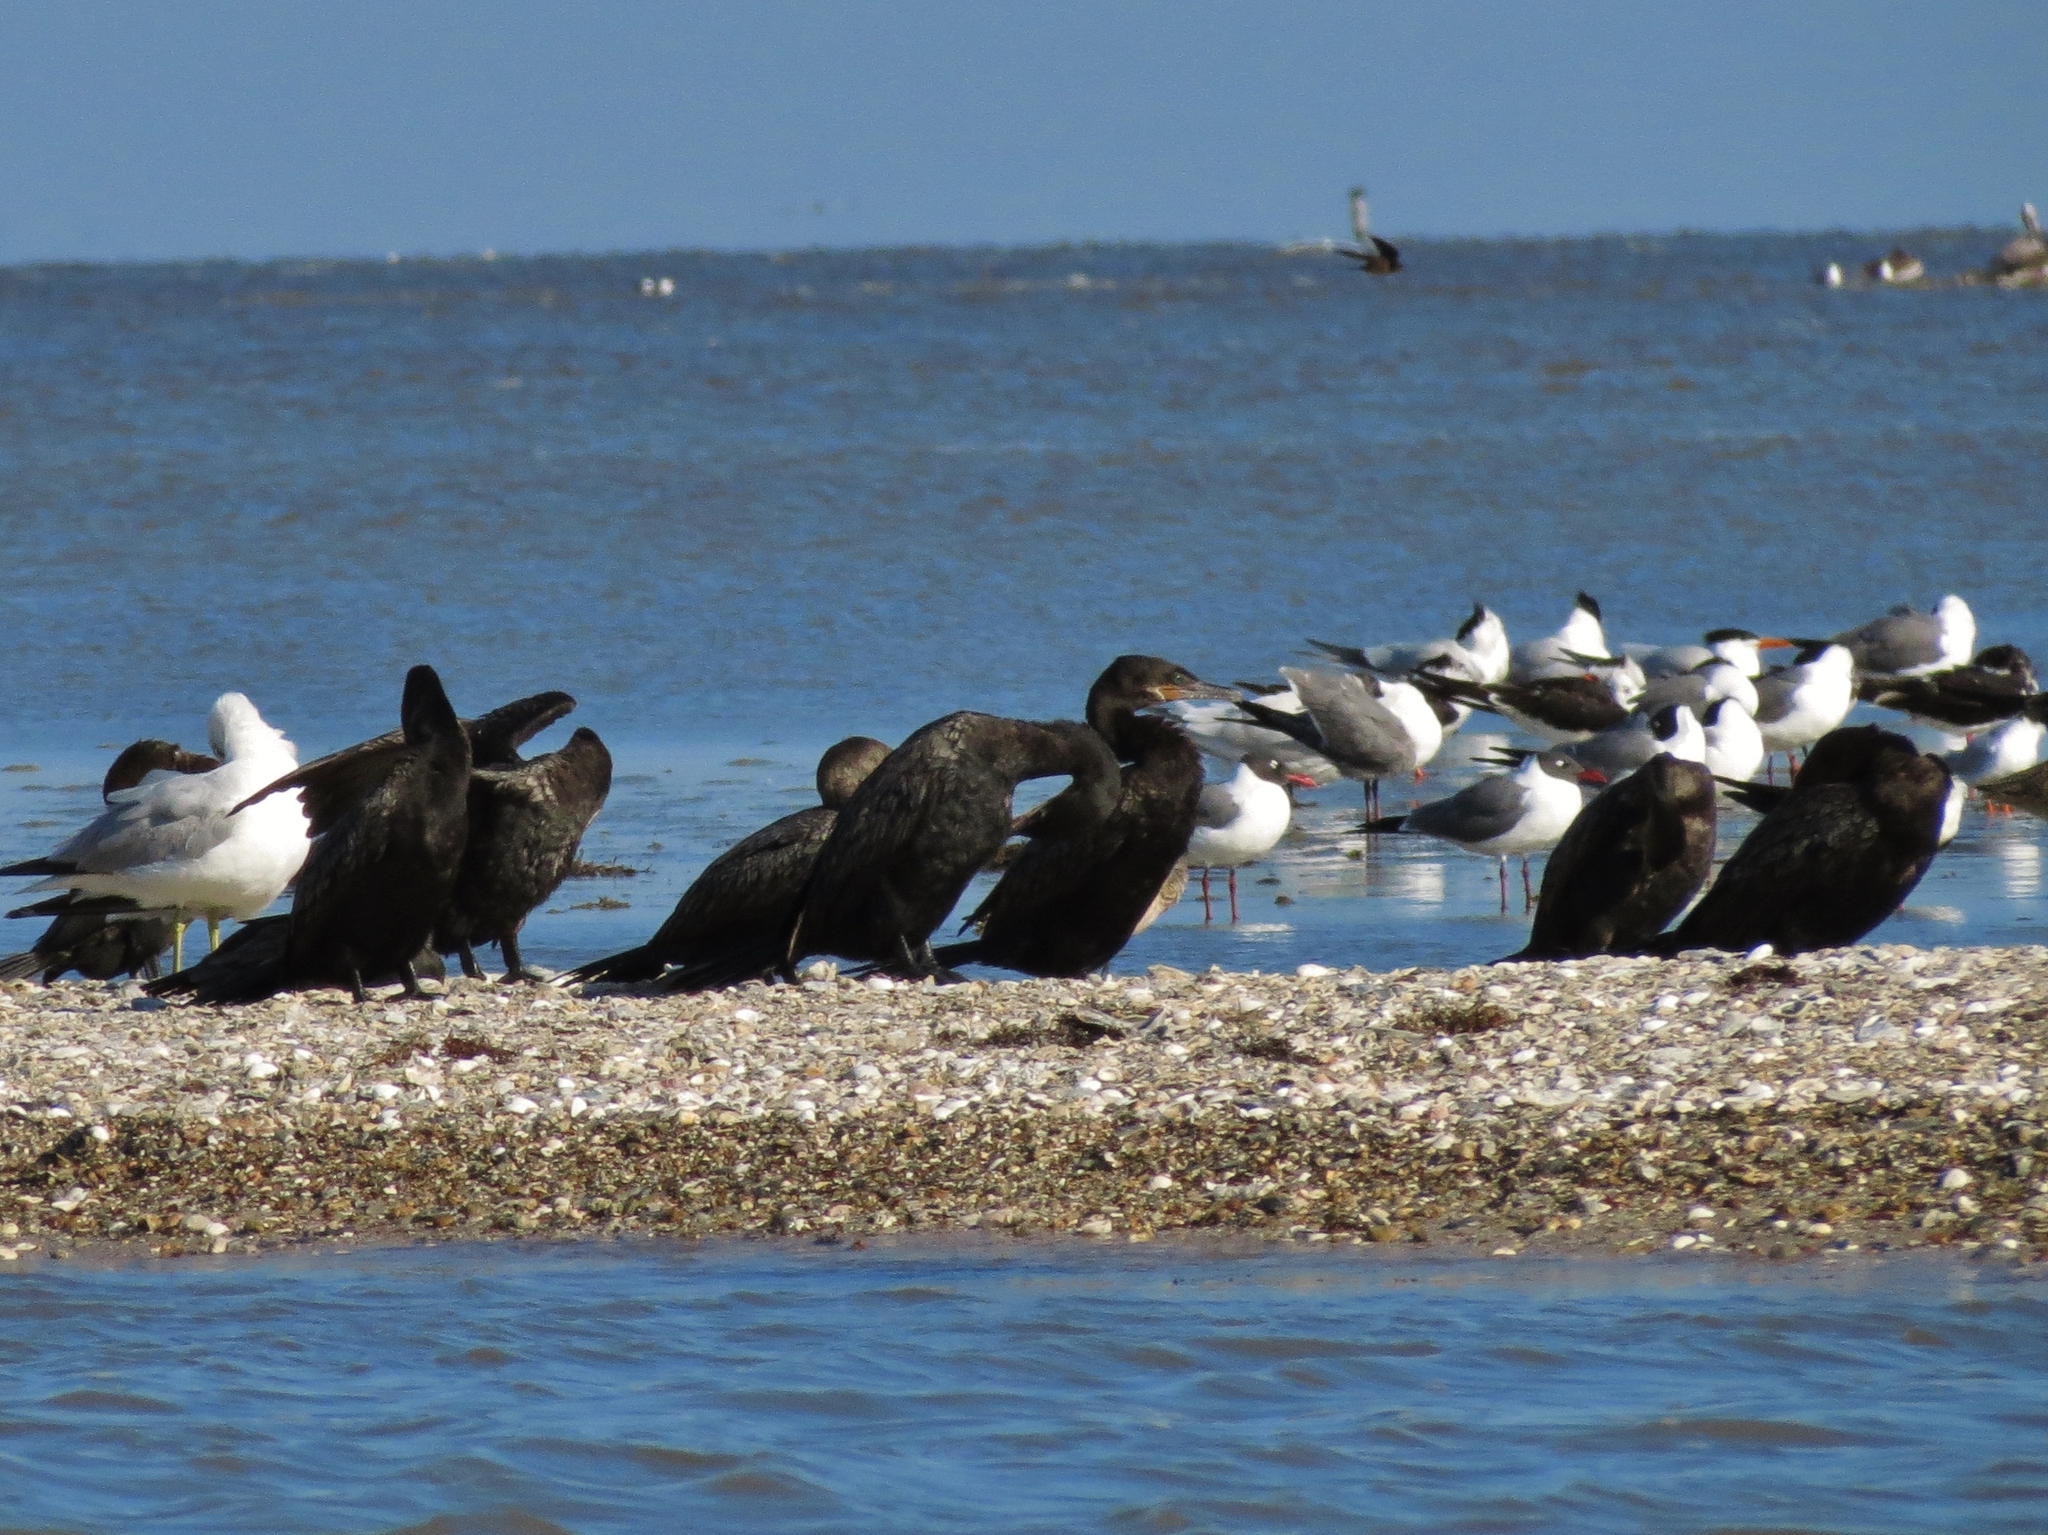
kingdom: Animalia
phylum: Chordata
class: Aves
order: Suliformes
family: Phalacrocoracidae
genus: Phalacrocorax
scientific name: Phalacrocorax brasilianus
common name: Neotropic cormorant
